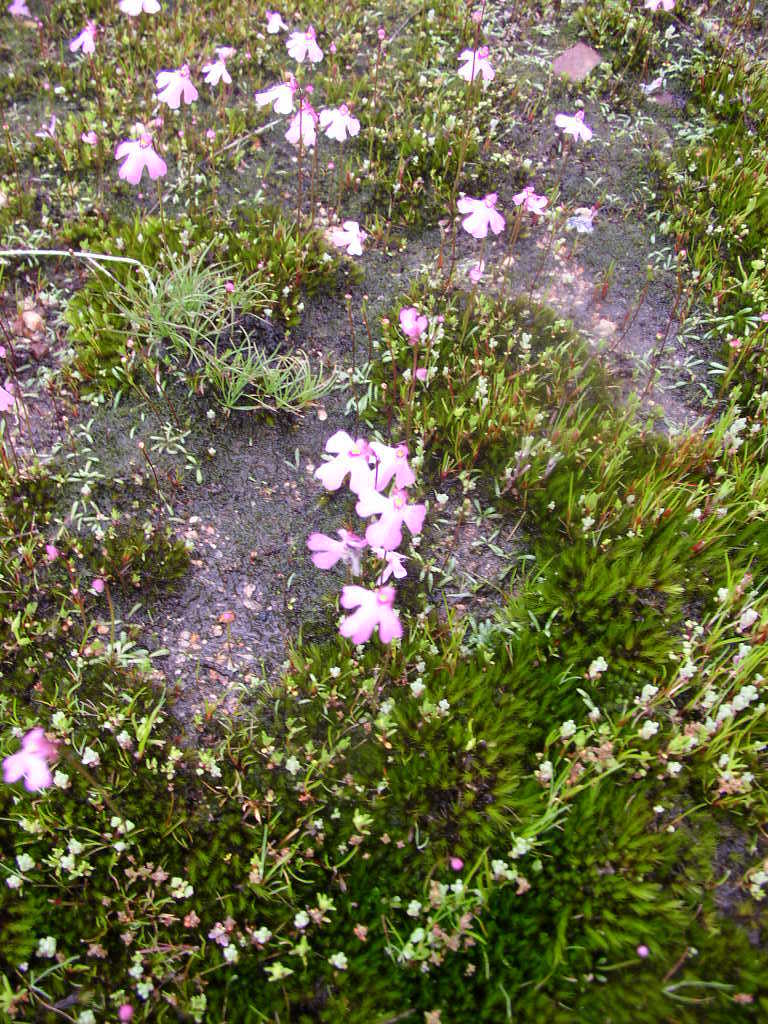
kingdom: Plantae
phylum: Tracheophyta
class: Magnoliopsida
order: Lamiales
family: Lentibulariaceae
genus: Utricularia
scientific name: Utricularia multifida
